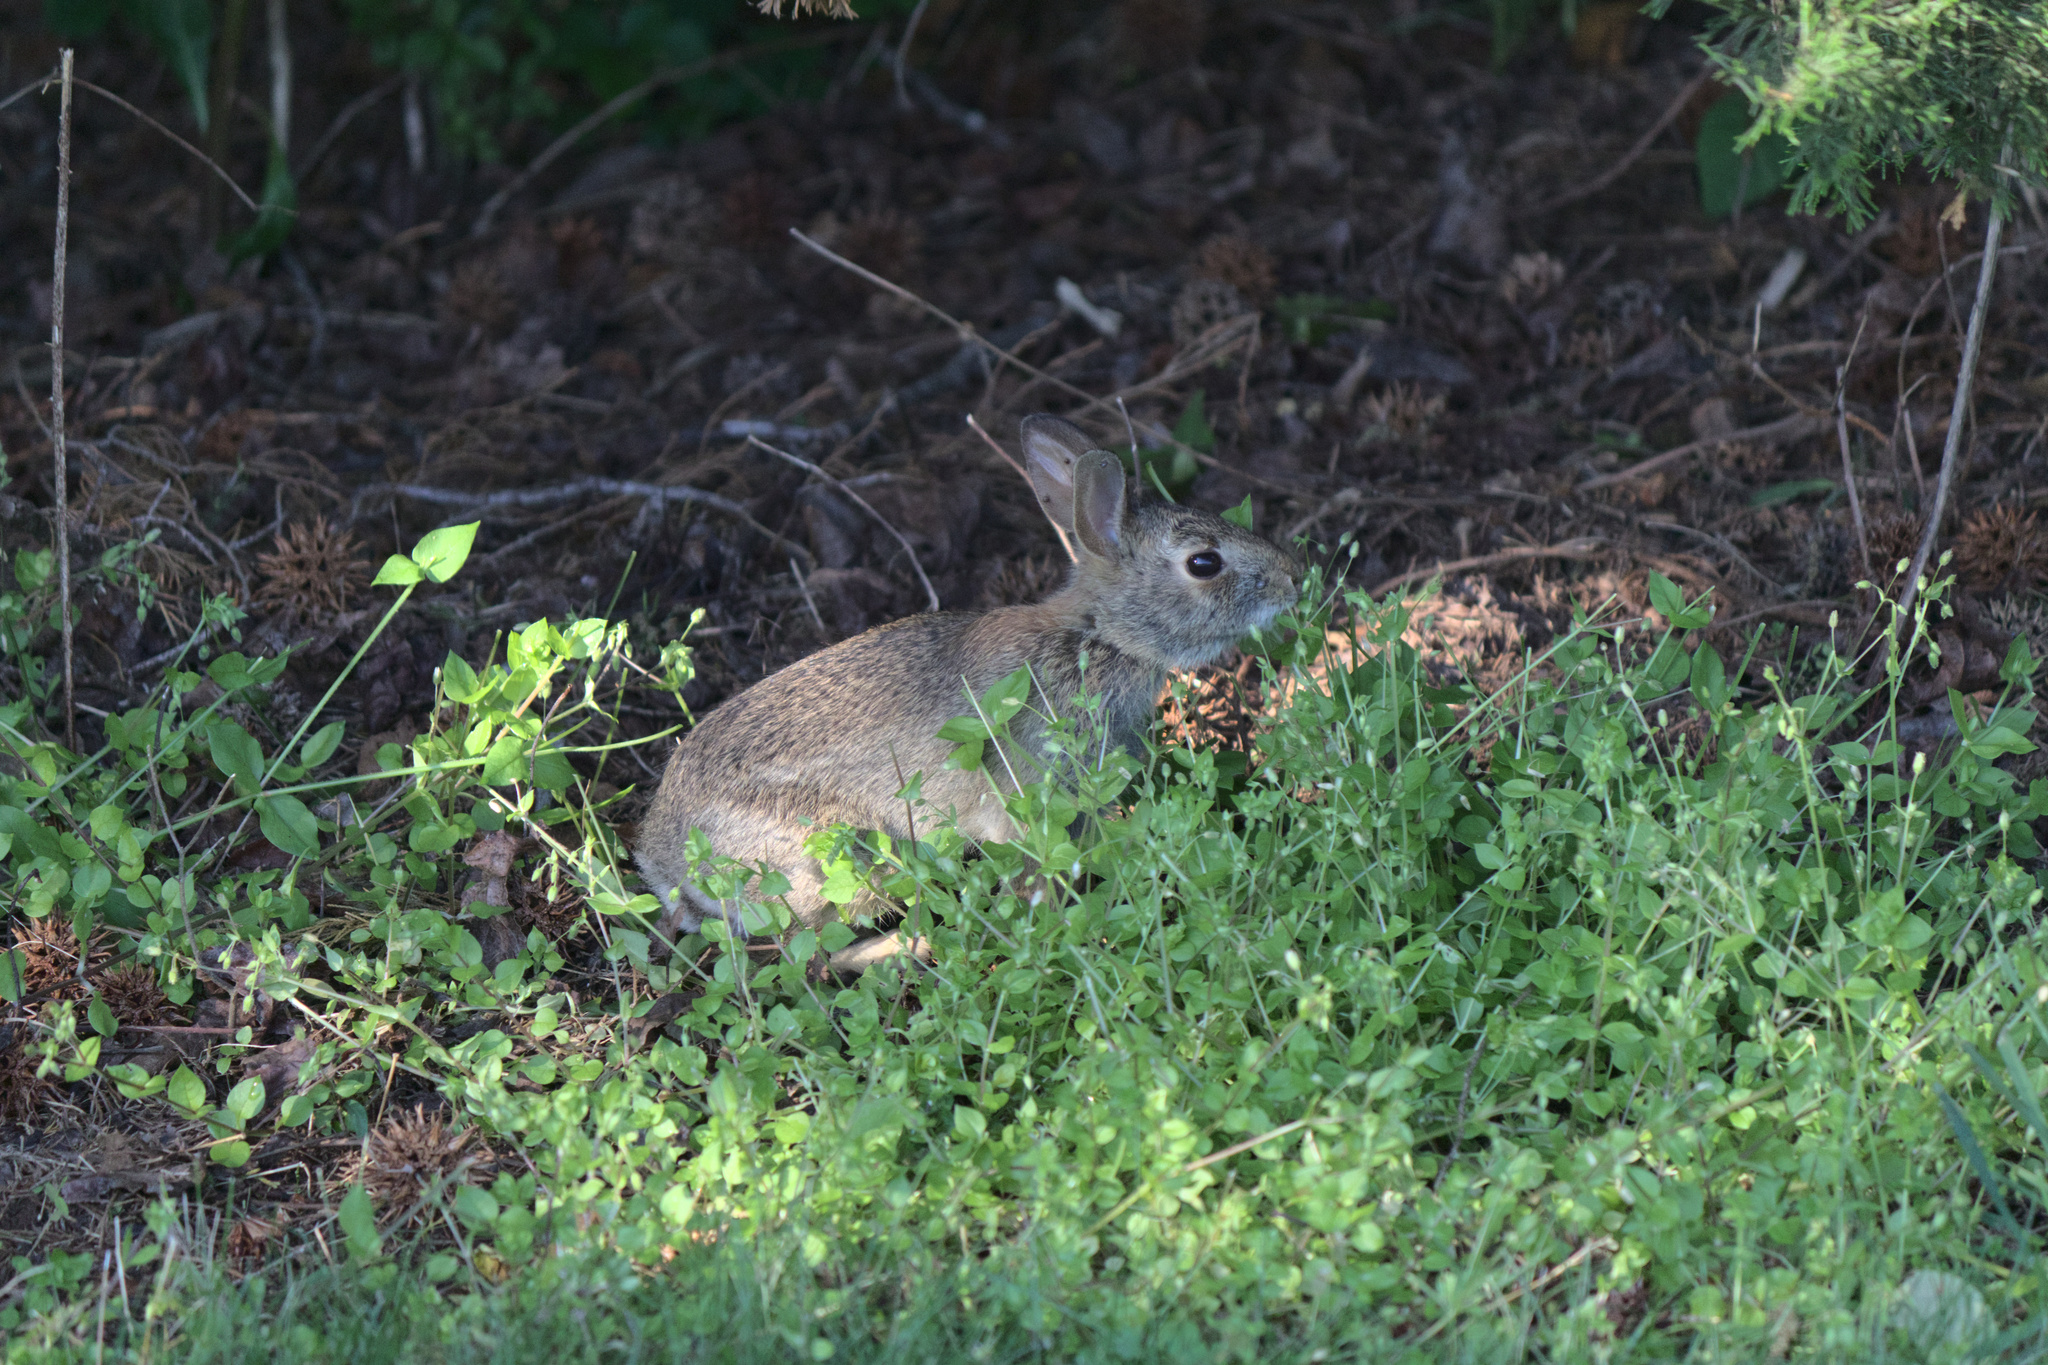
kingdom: Animalia
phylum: Chordata
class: Mammalia
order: Lagomorpha
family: Leporidae
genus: Sylvilagus
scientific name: Sylvilagus floridanus
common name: Eastern cottontail
